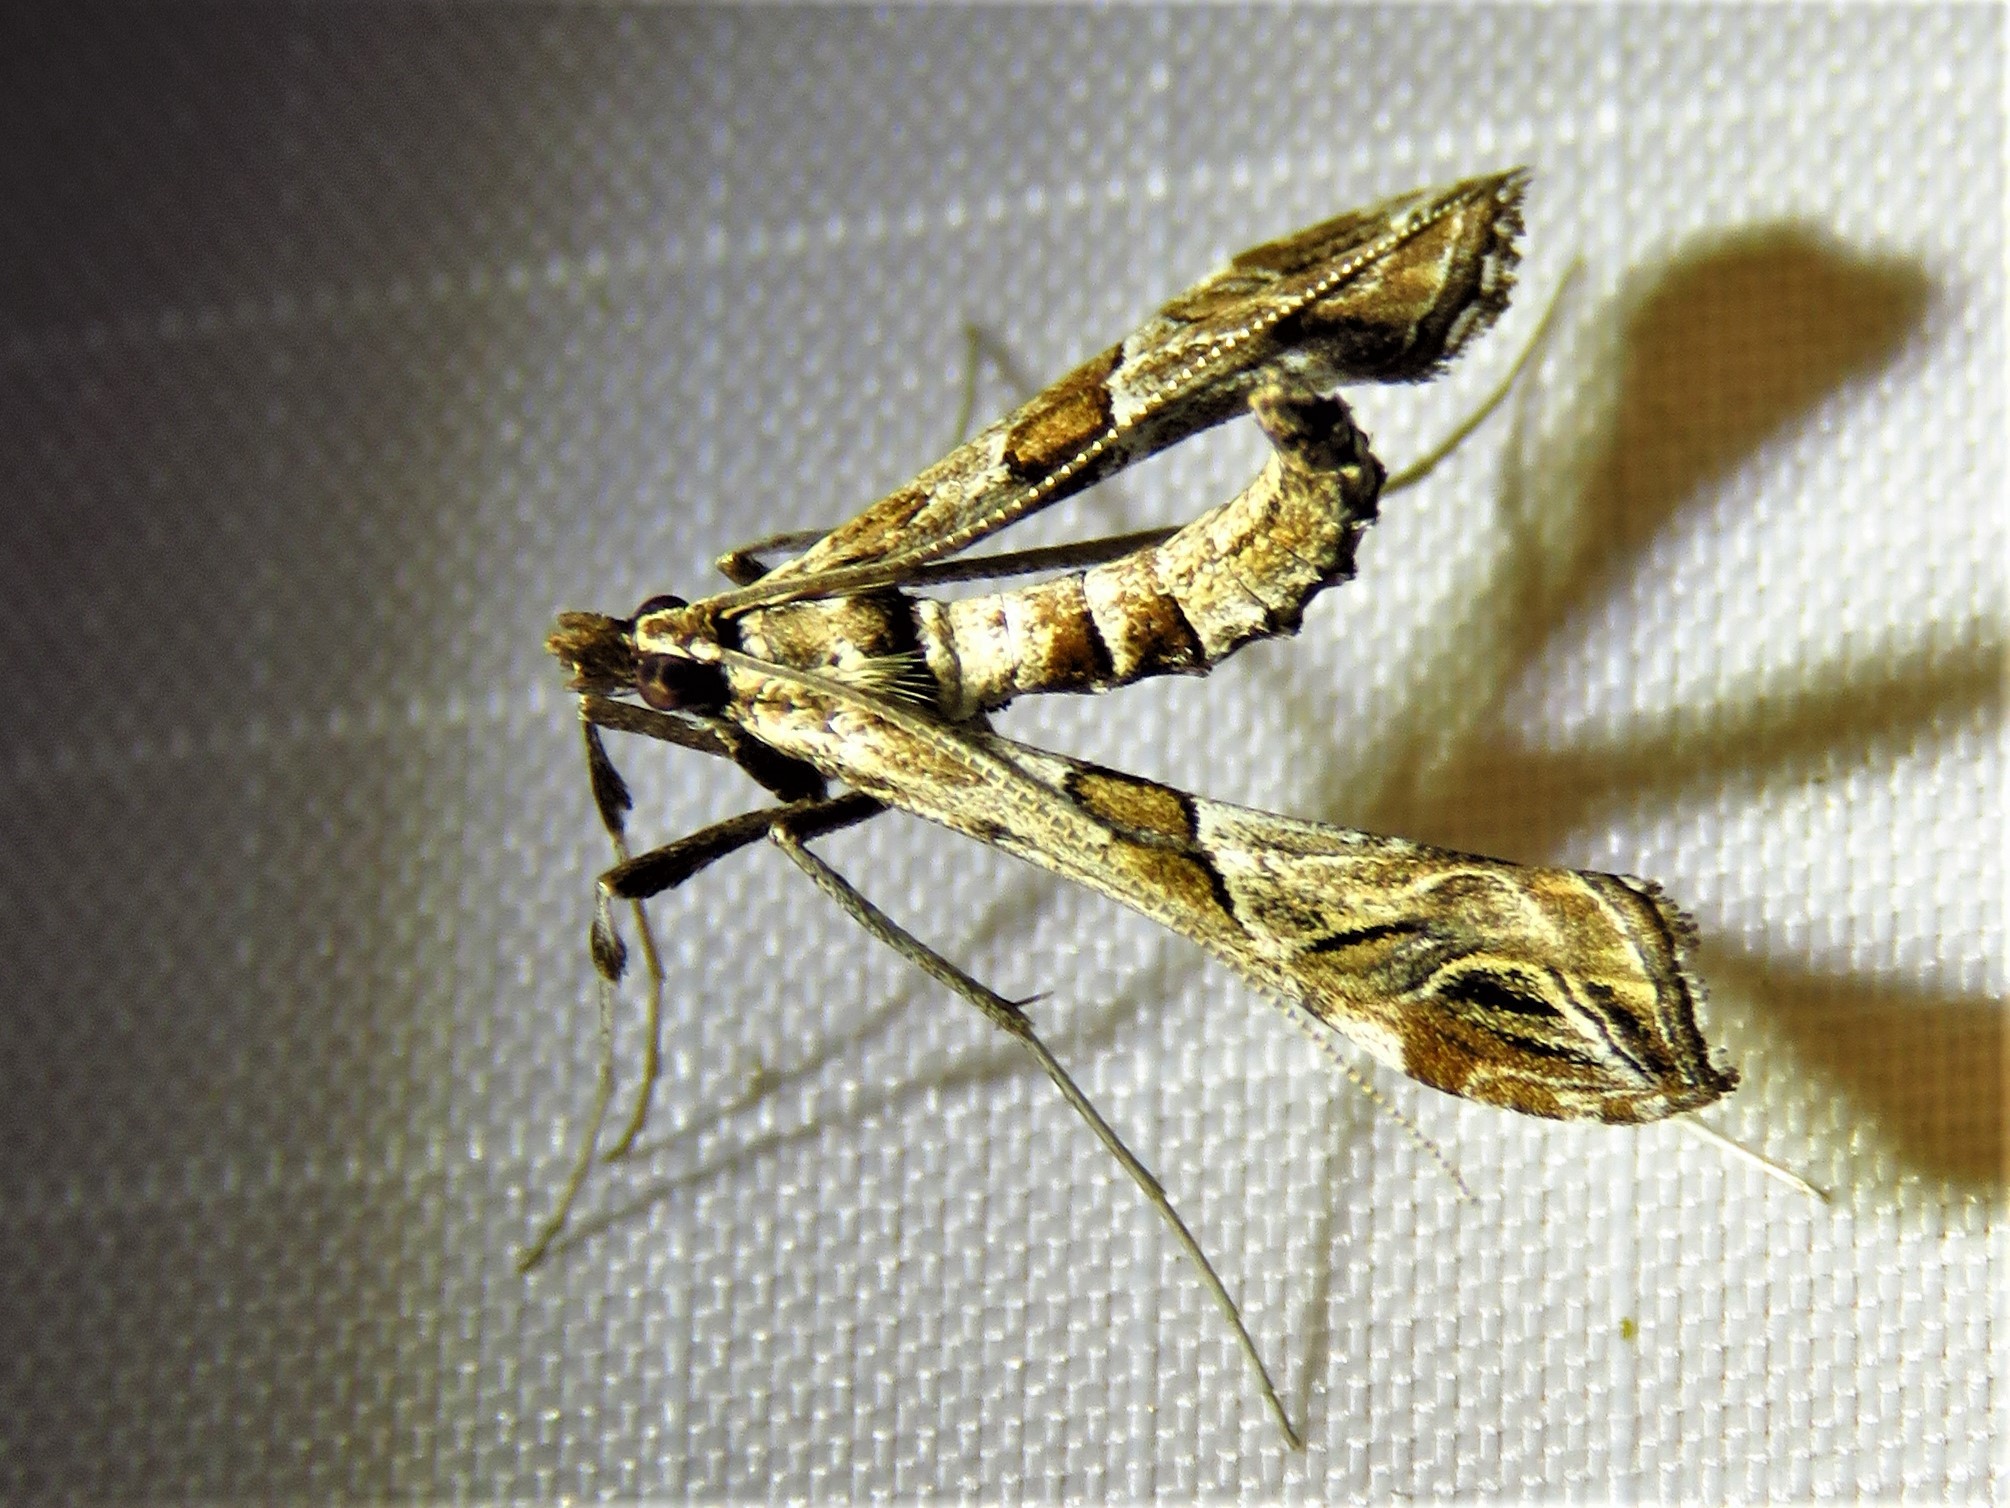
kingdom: Animalia
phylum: Arthropoda
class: Insecta
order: Lepidoptera
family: Crambidae
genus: Lineodes
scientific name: Lineodes interrupta
